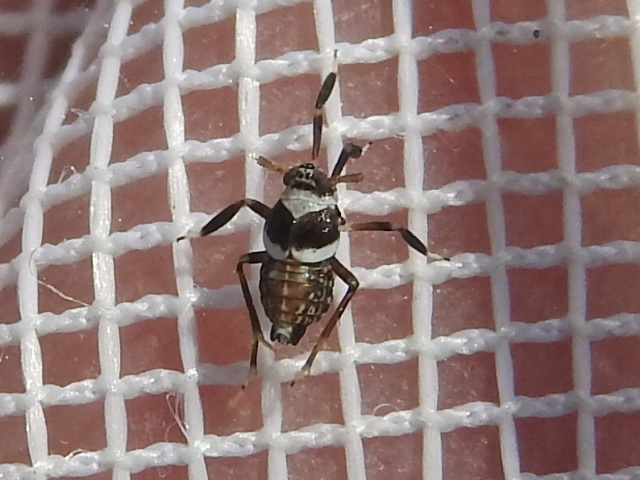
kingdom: Animalia
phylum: Arthropoda
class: Insecta
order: Hemiptera
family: Delphacidae
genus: Pissonotus
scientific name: Pissonotus flabellatus
